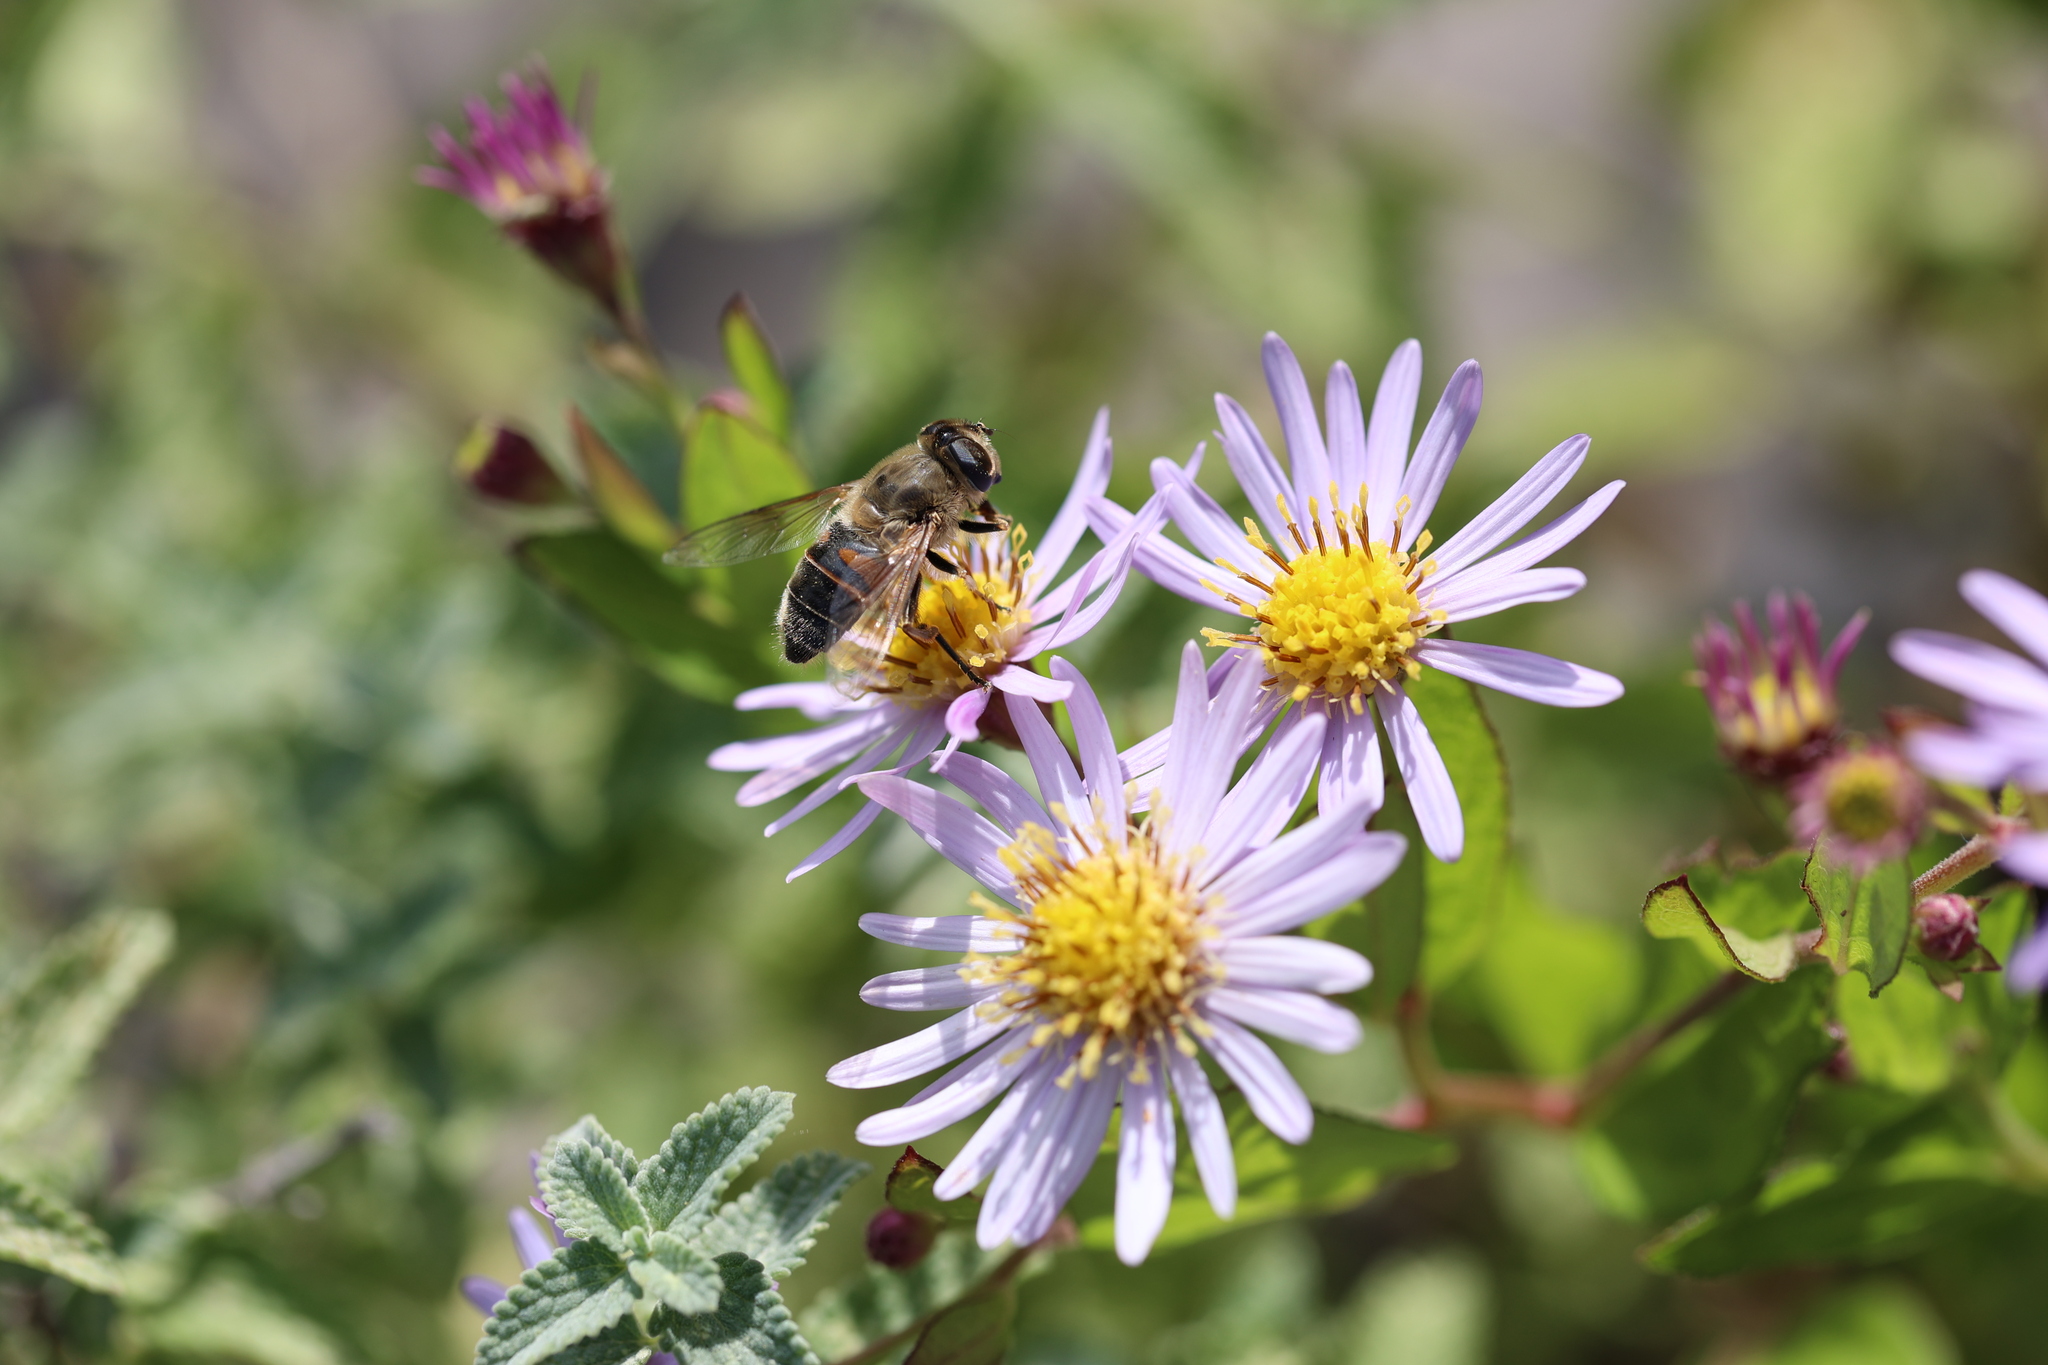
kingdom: Animalia
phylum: Arthropoda
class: Insecta
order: Diptera
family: Syrphidae
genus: Eristalis
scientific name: Eristalis tenax
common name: Drone fly
